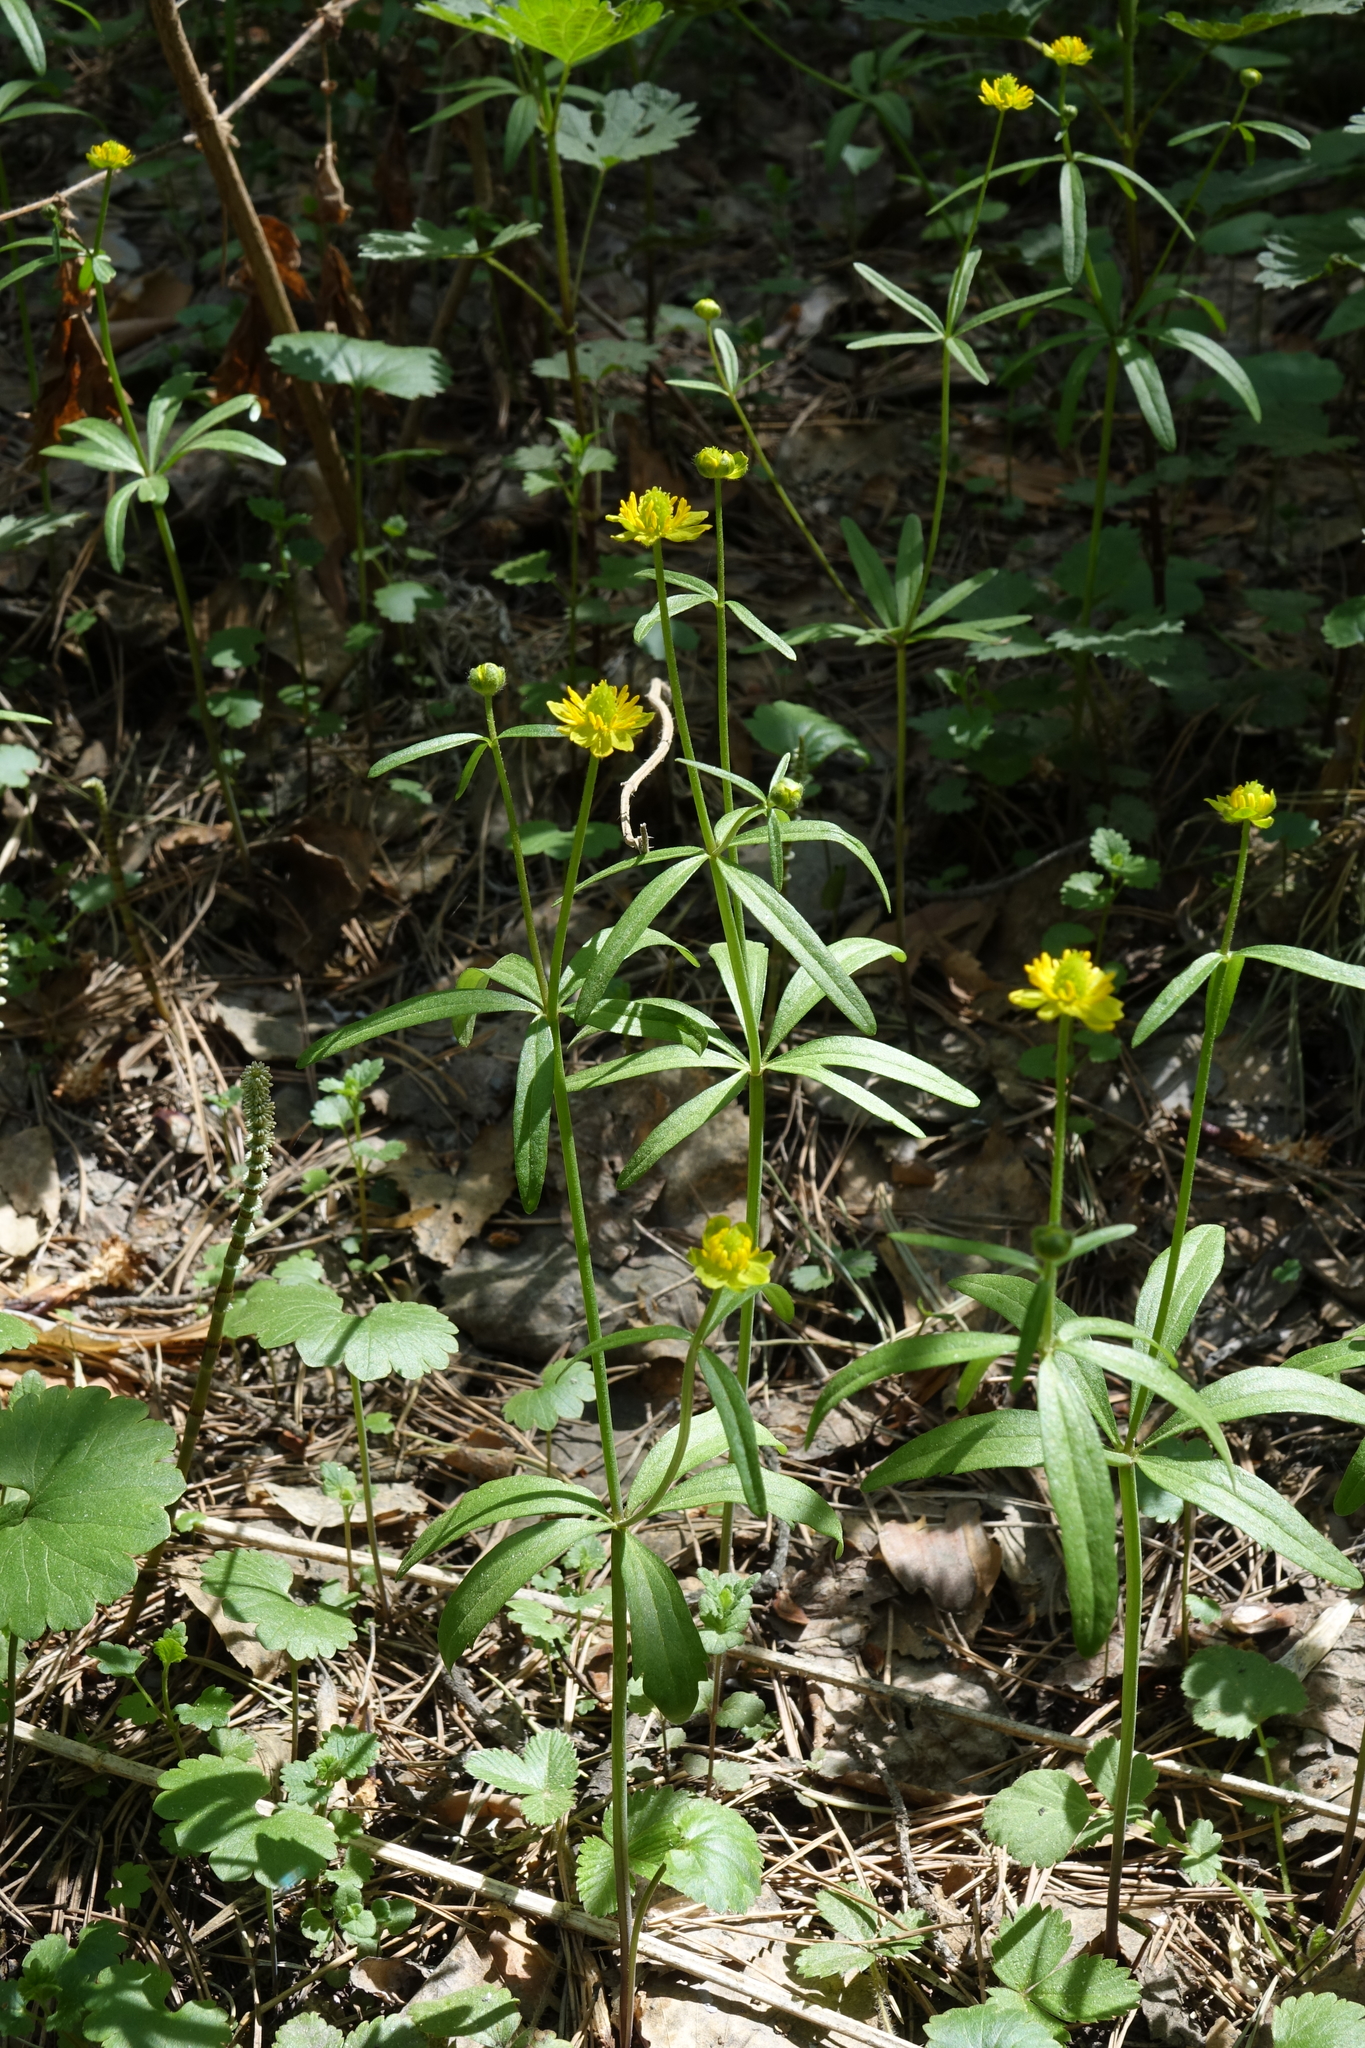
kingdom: Plantae
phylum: Tracheophyta
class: Magnoliopsida
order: Ranunculales
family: Ranunculaceae
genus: Ranunculus
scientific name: Ranunculus monophyllus
